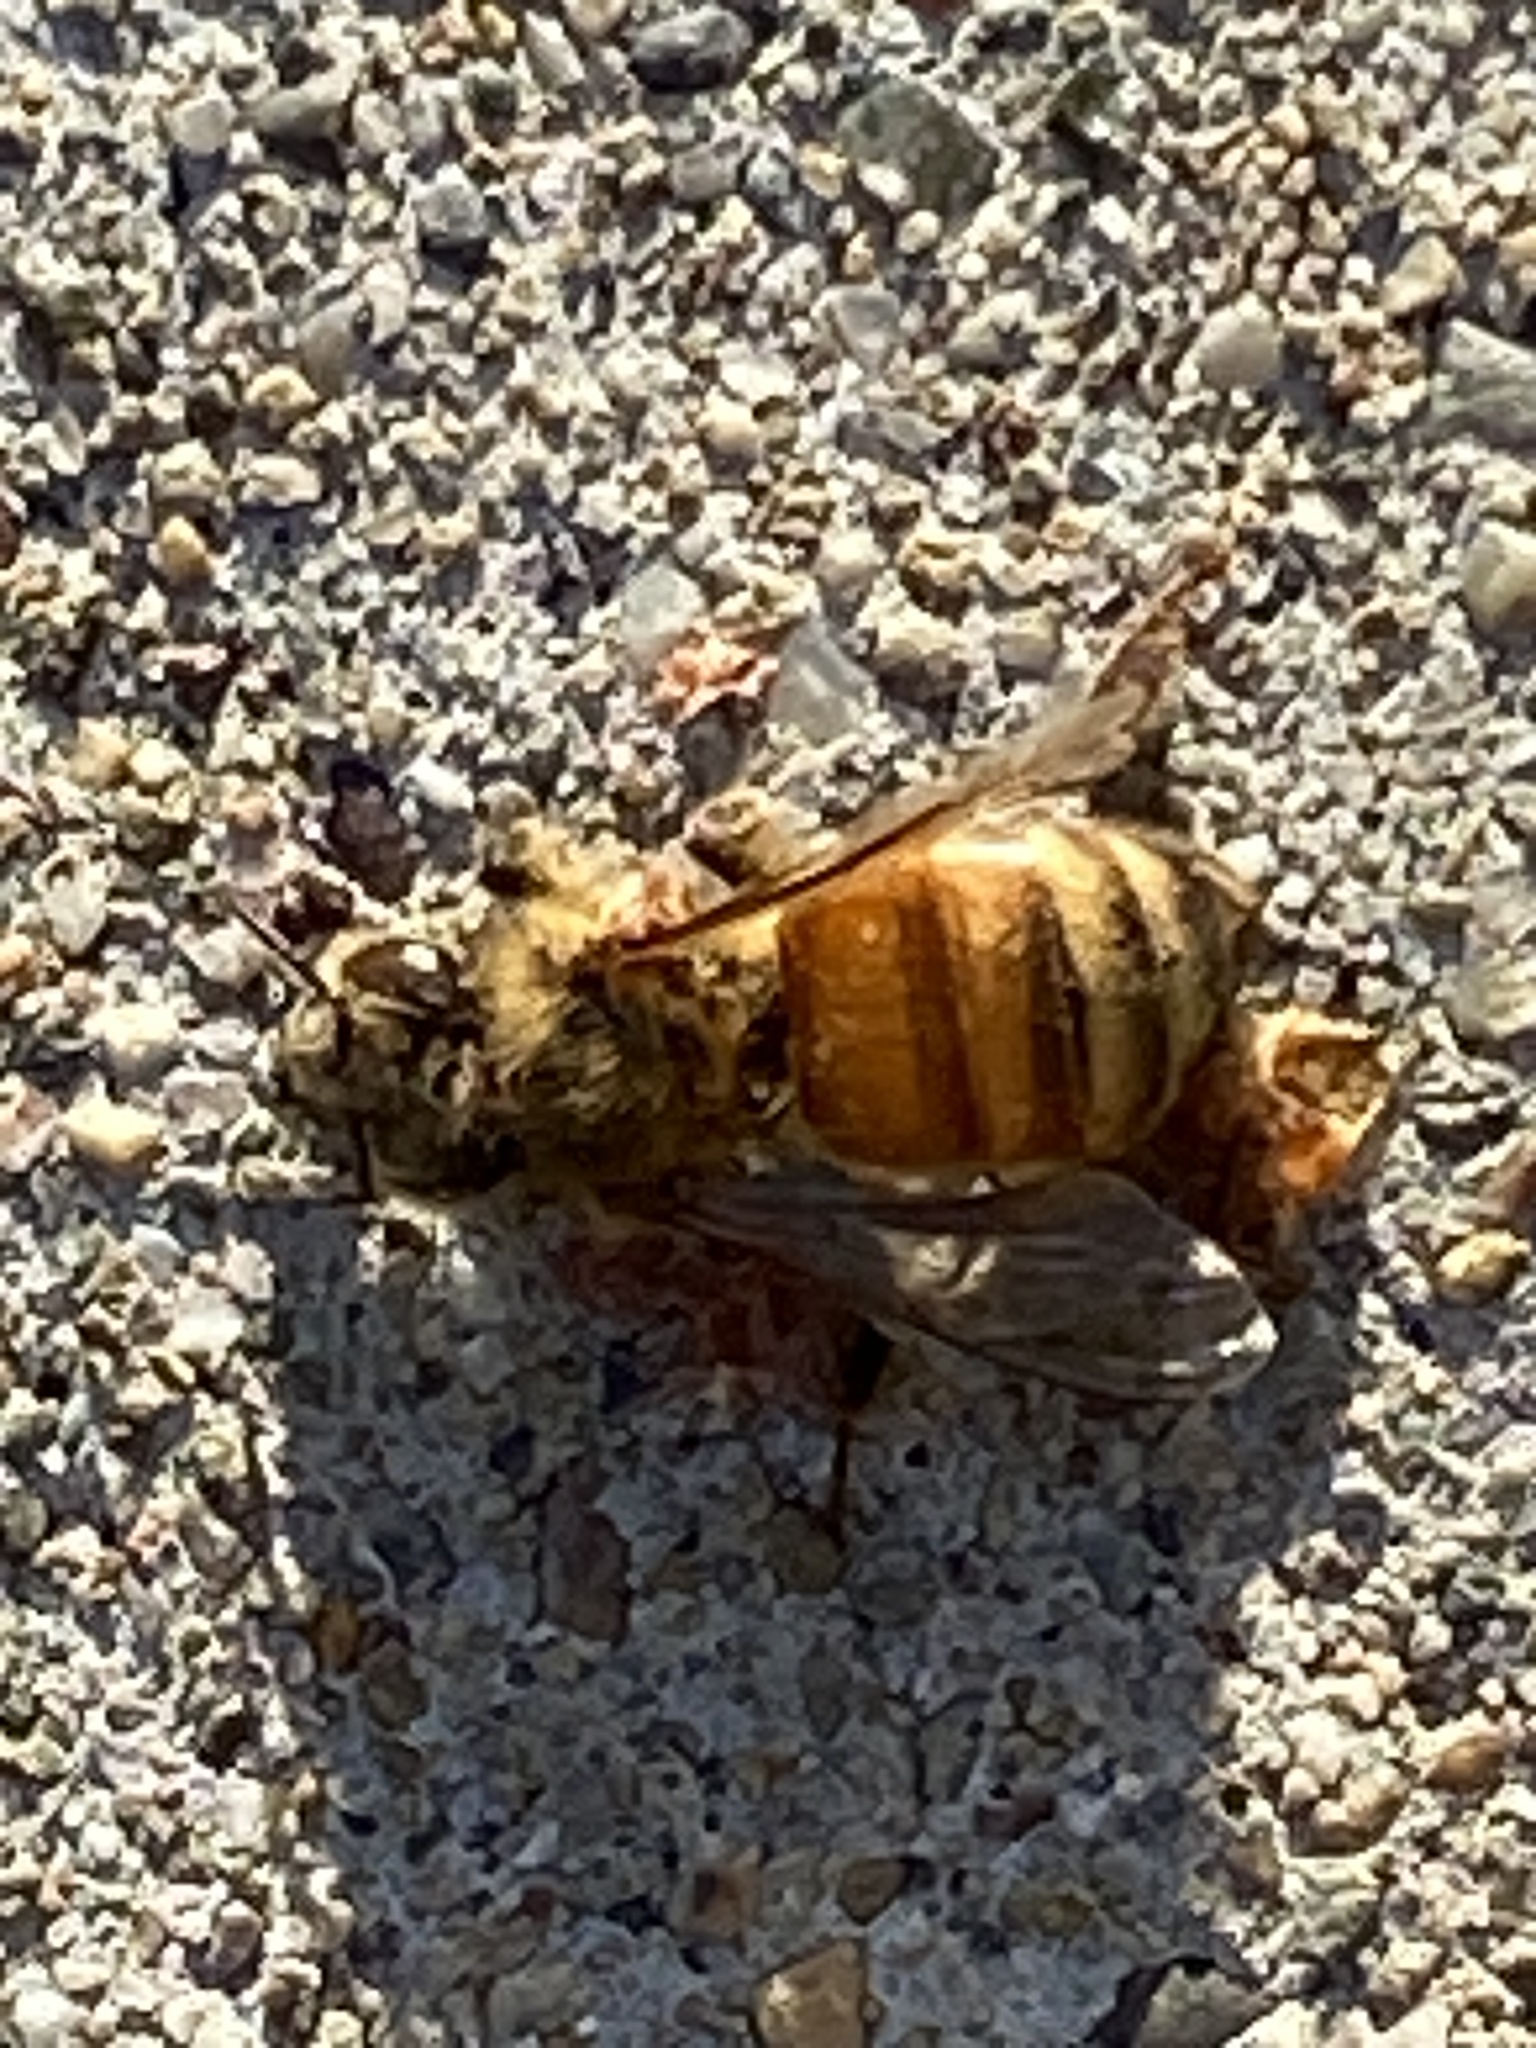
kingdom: Animalia
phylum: Arthropoda
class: Insecta
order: Hymenoptera
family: Apidae
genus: Apis
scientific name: Apis mellifera
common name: Honey bee
